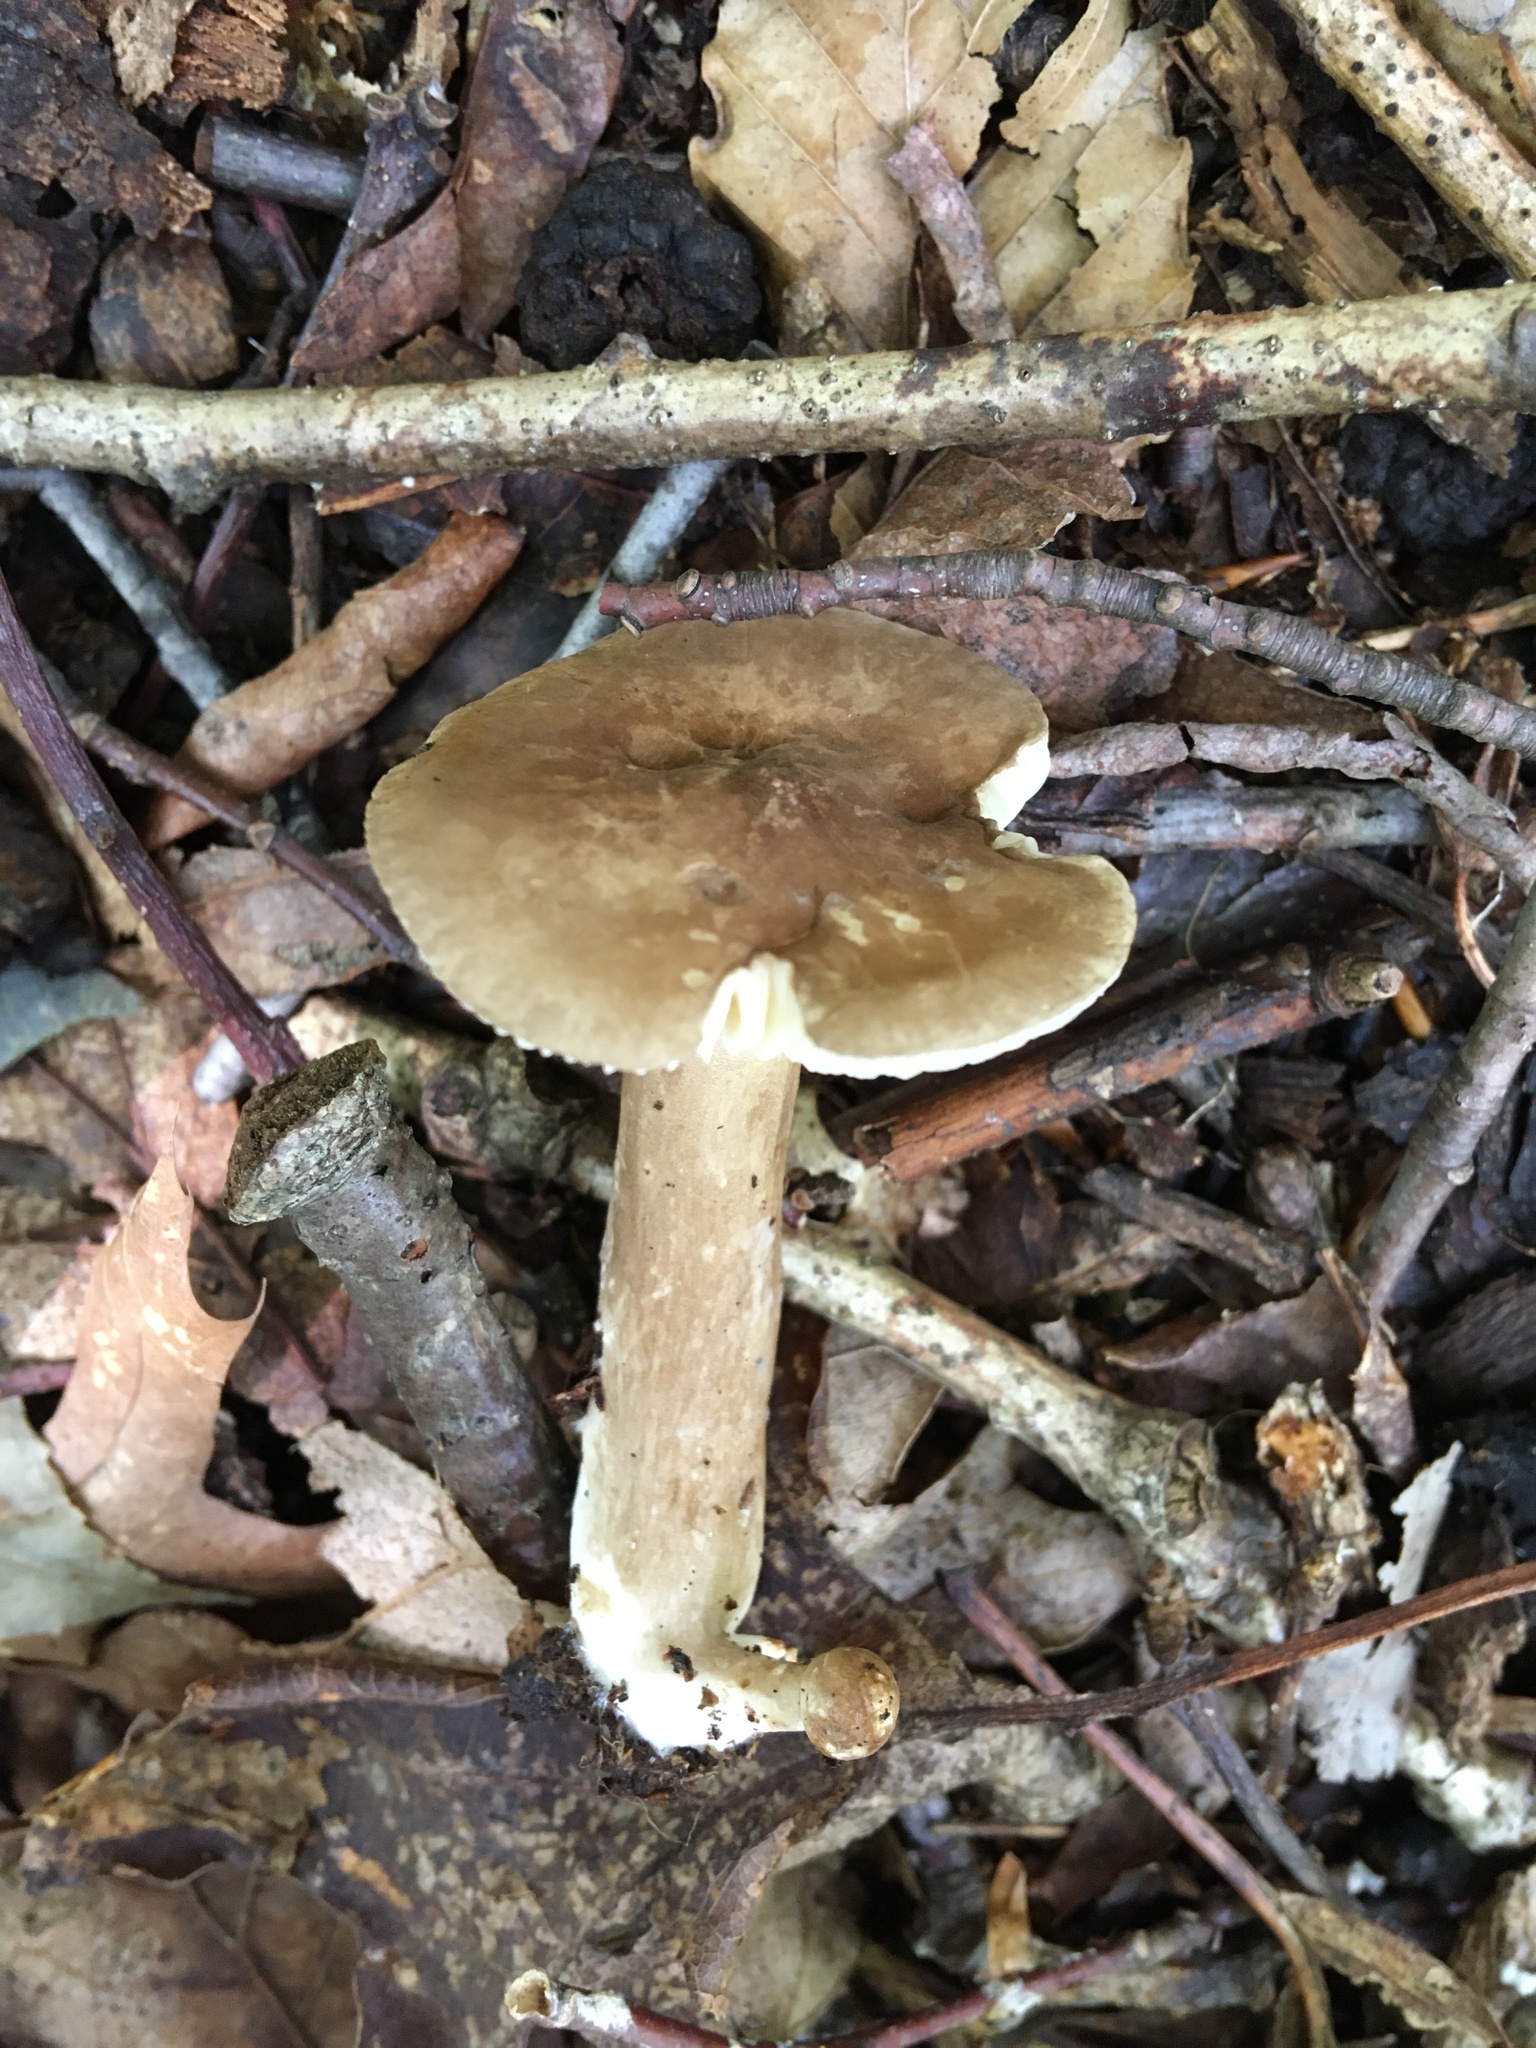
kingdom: Fungi
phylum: Basidiomycota
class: Agaricomycetes
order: Russulales
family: Russulaceae
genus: Lactarius
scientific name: Lactarius fuliginosus
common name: Sooty milkcap
